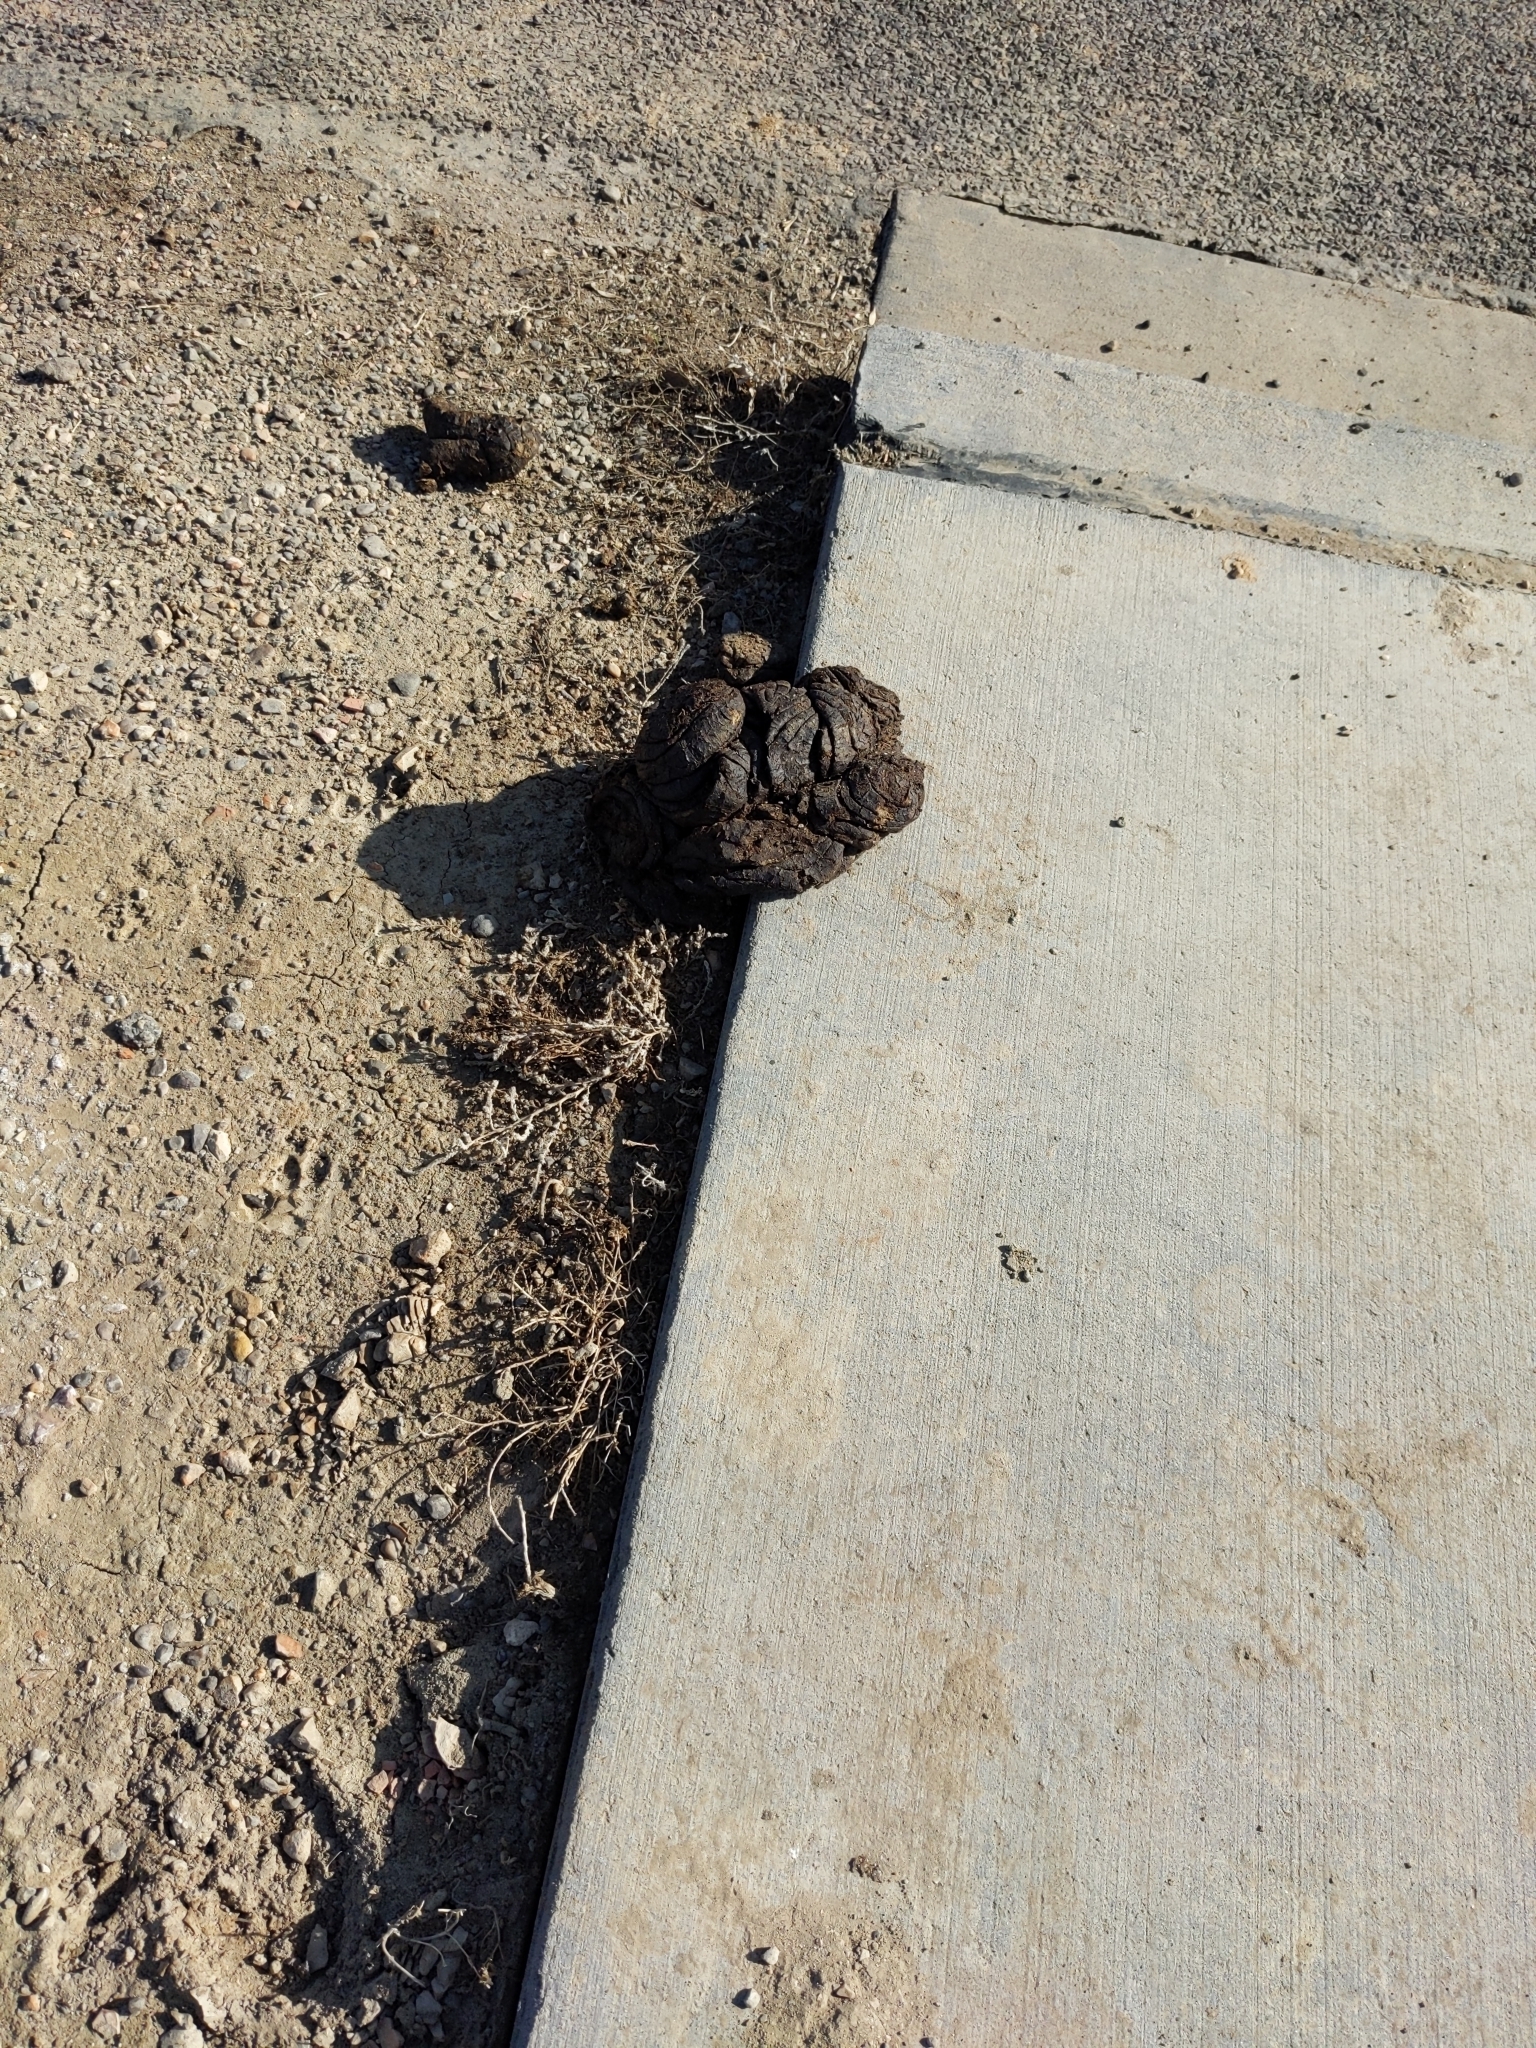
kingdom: Animalia
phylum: Chordata
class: Mammalia
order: Artiodactyla
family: Bovidae
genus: Bison
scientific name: Bison bison
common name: American bison
